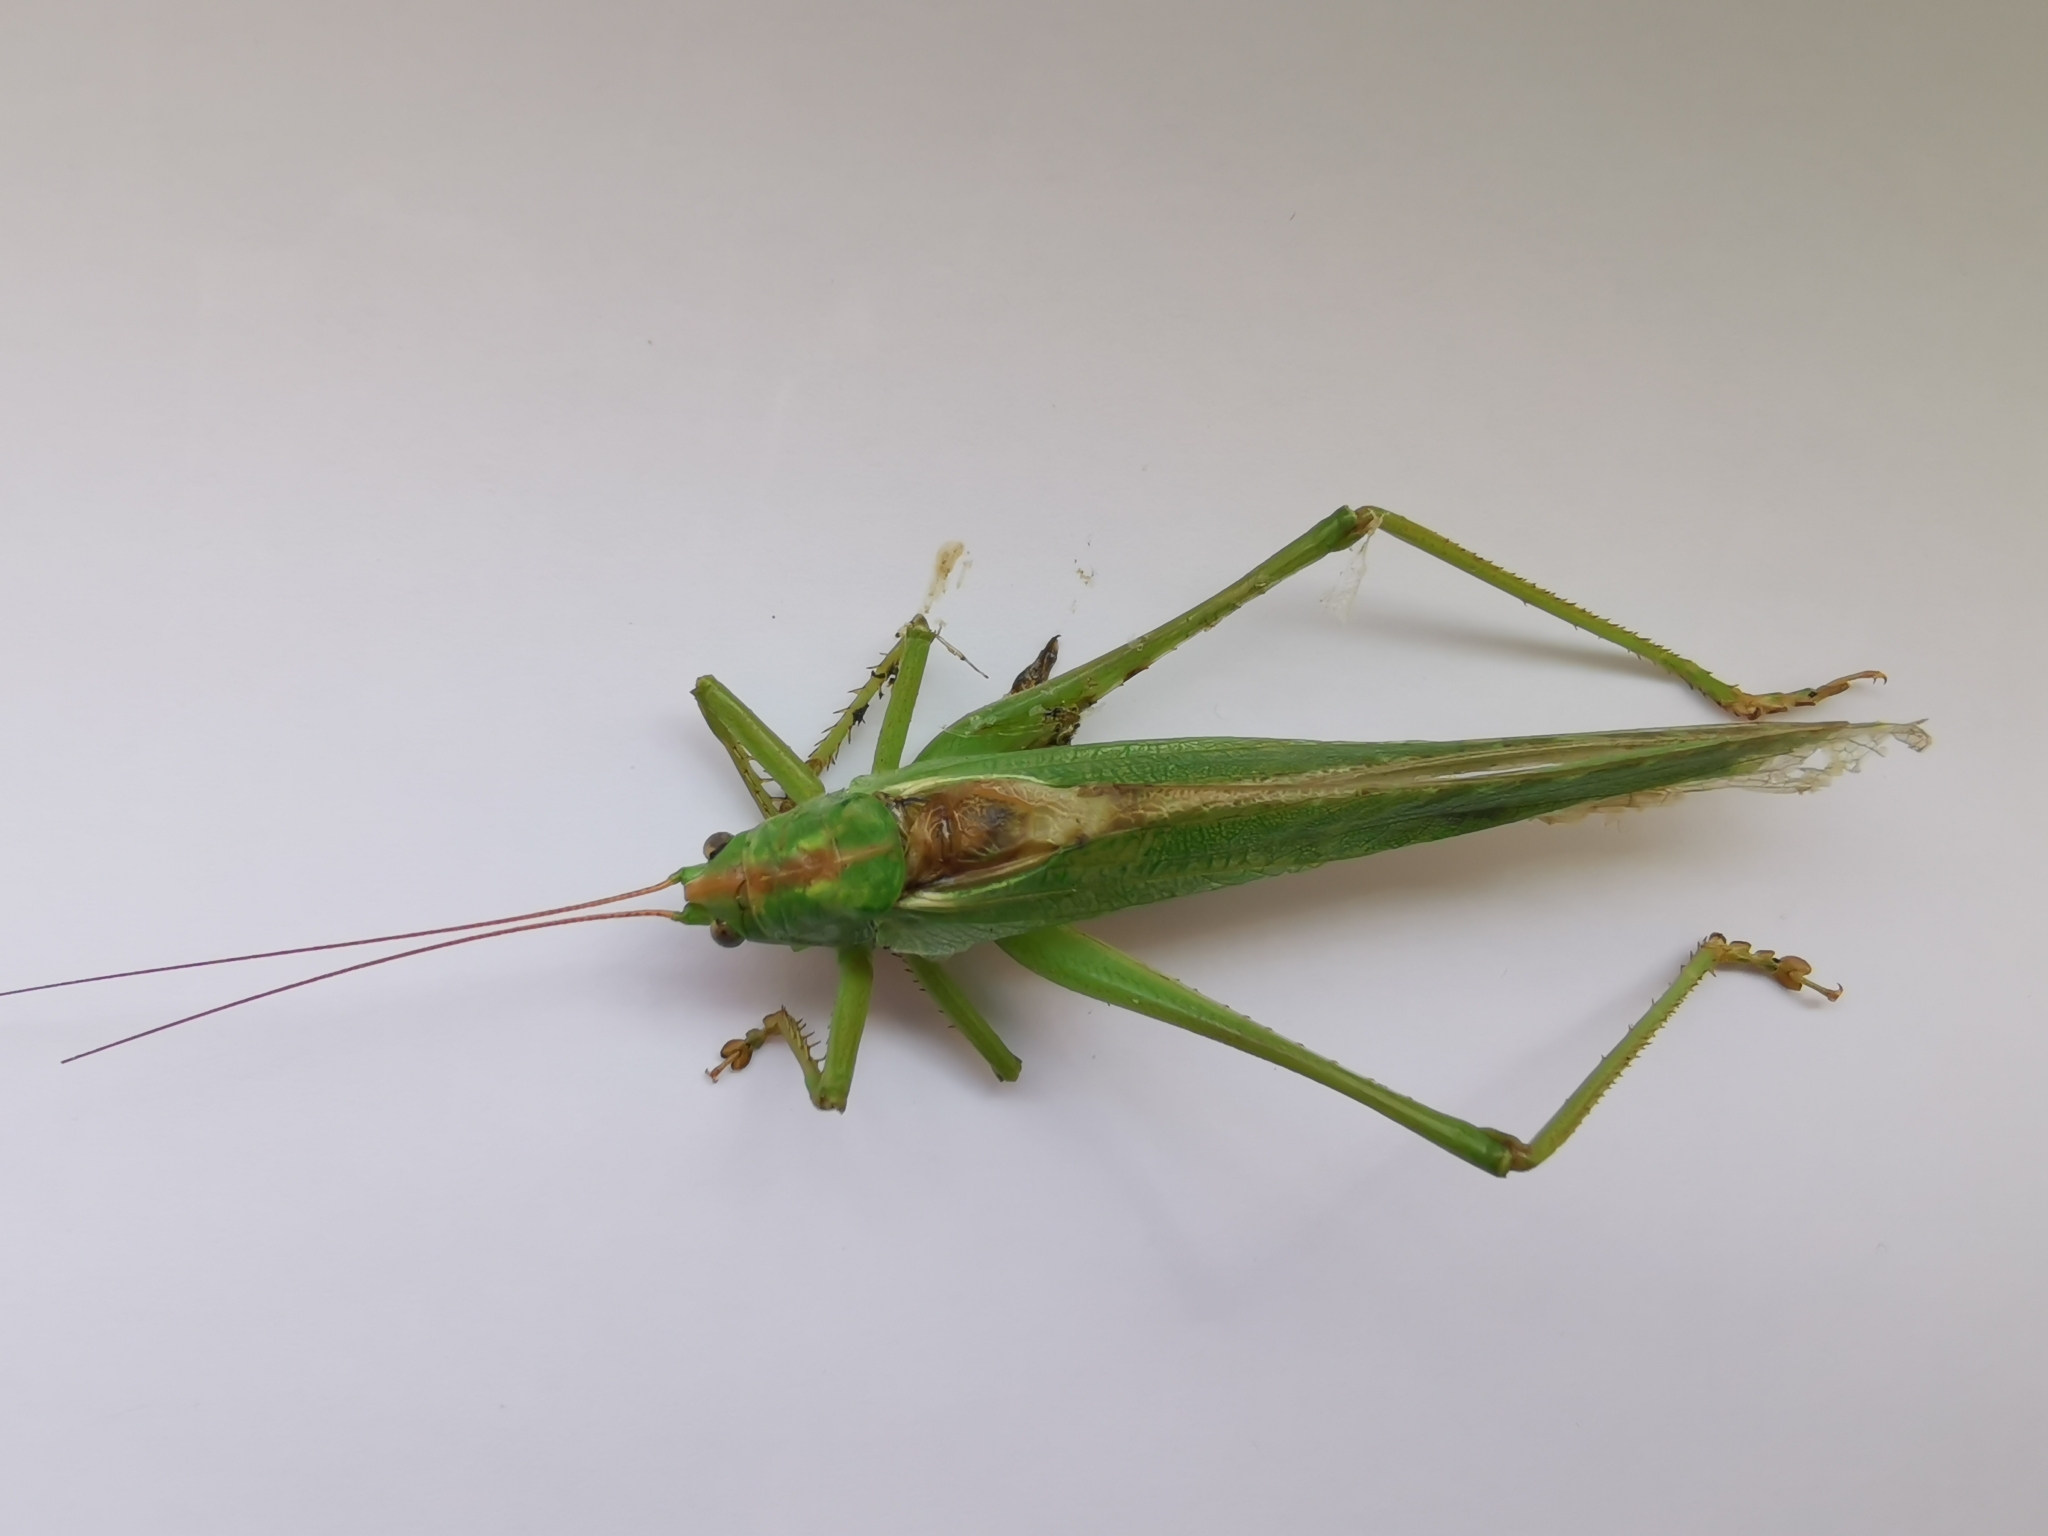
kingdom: Animalia
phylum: Arthropoda
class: Insecta
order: Orthoptera
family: Tettigoniidae
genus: Tettigonia
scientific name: Tettigonia viridissima
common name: Great green bush-cricket
